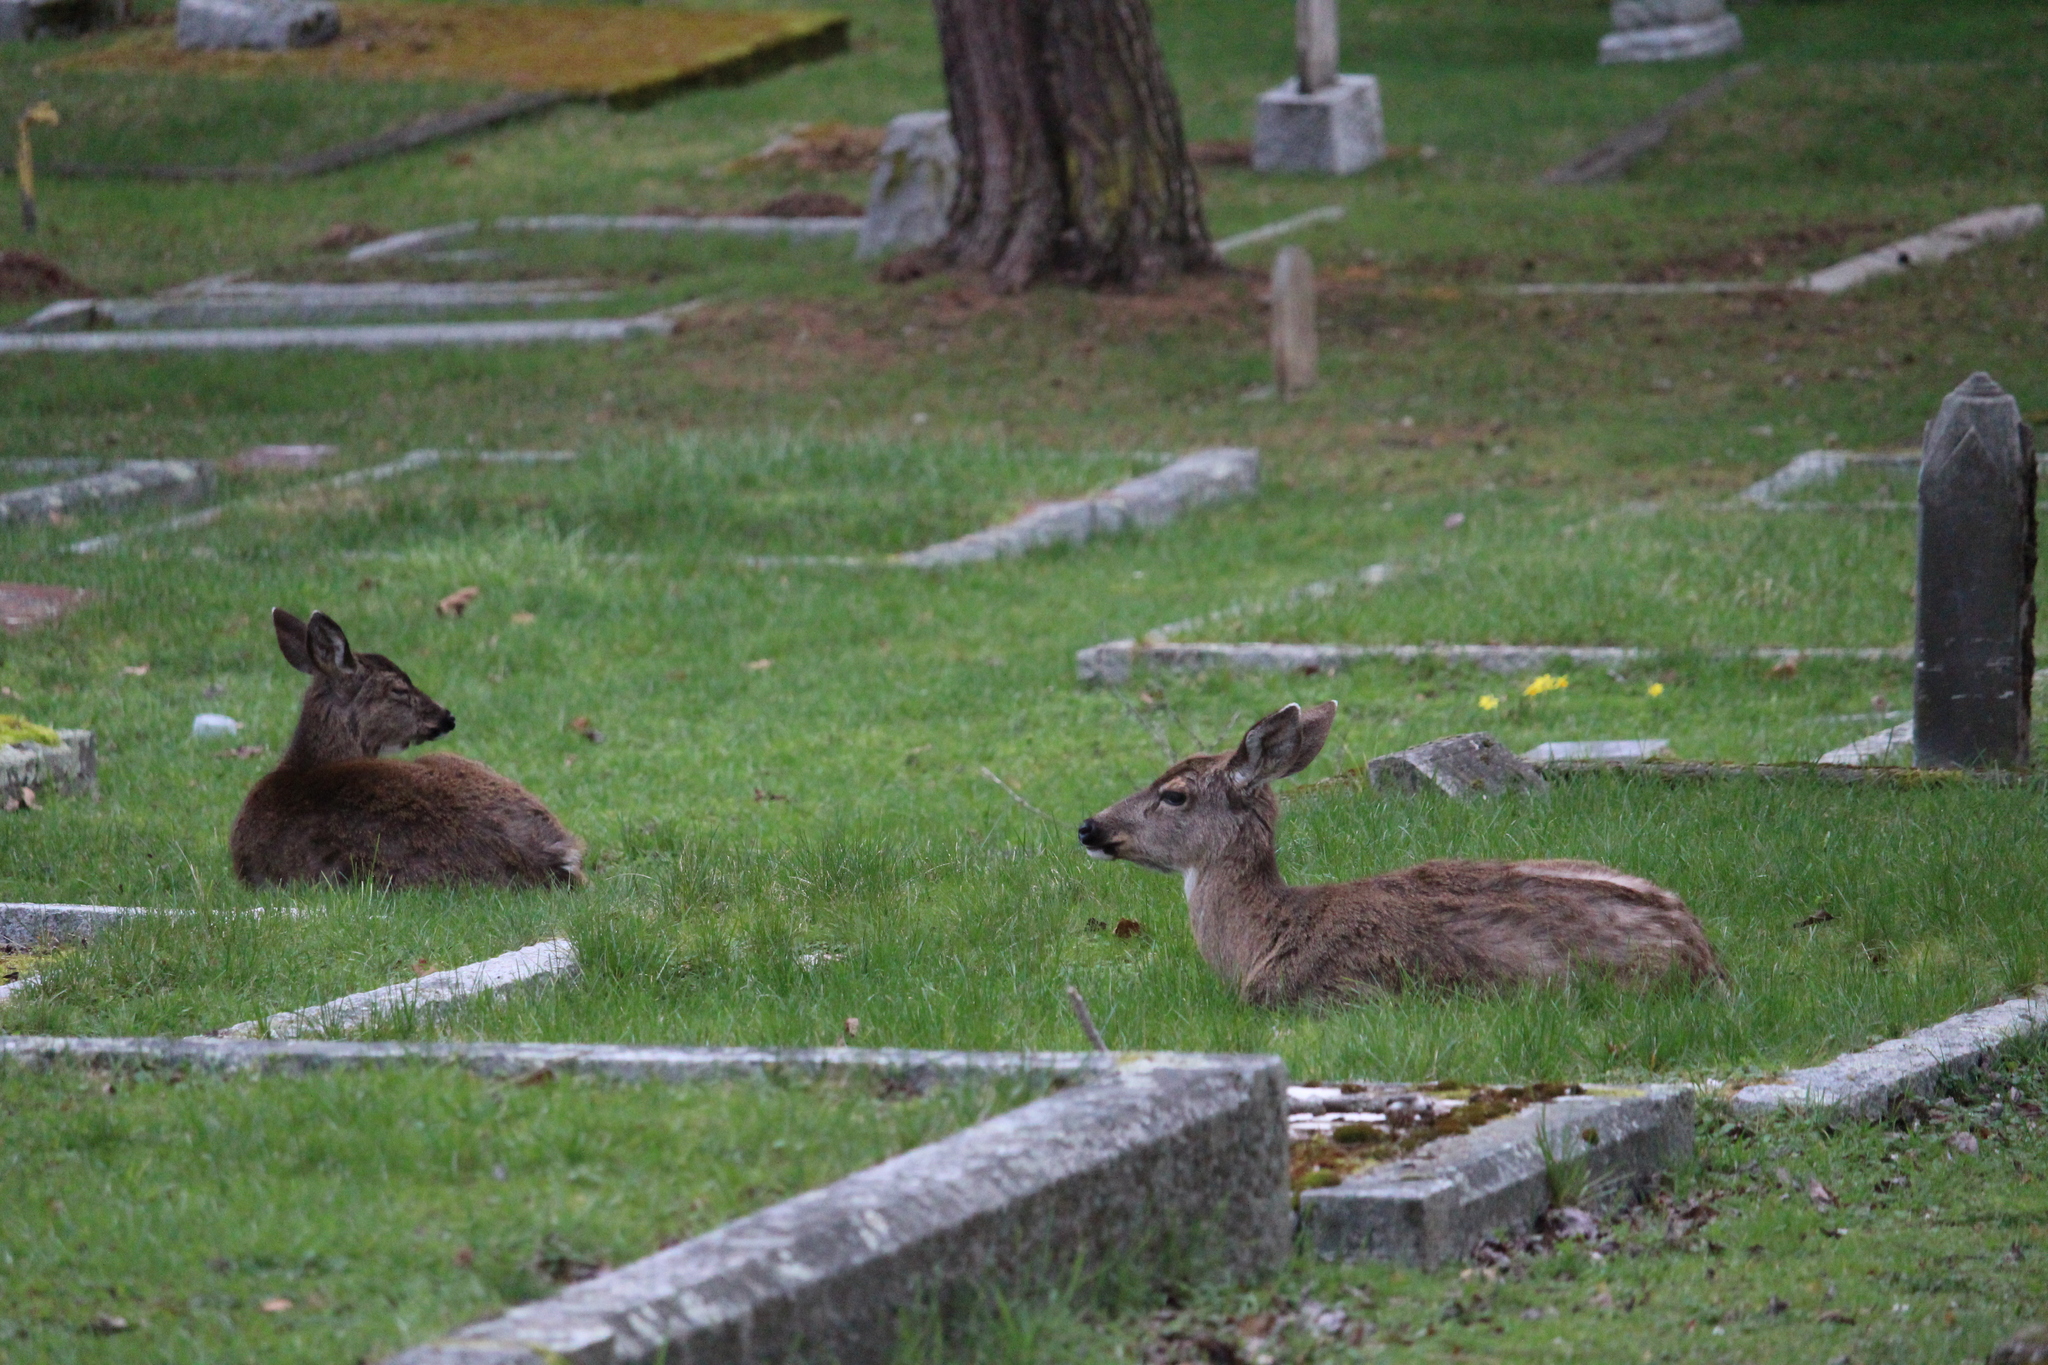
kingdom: Animalia
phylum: Chordata
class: Mammalia
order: Artiodactyla
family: Cervidae
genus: Odocoileus
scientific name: Odocoileus hemionus
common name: Mule deer
